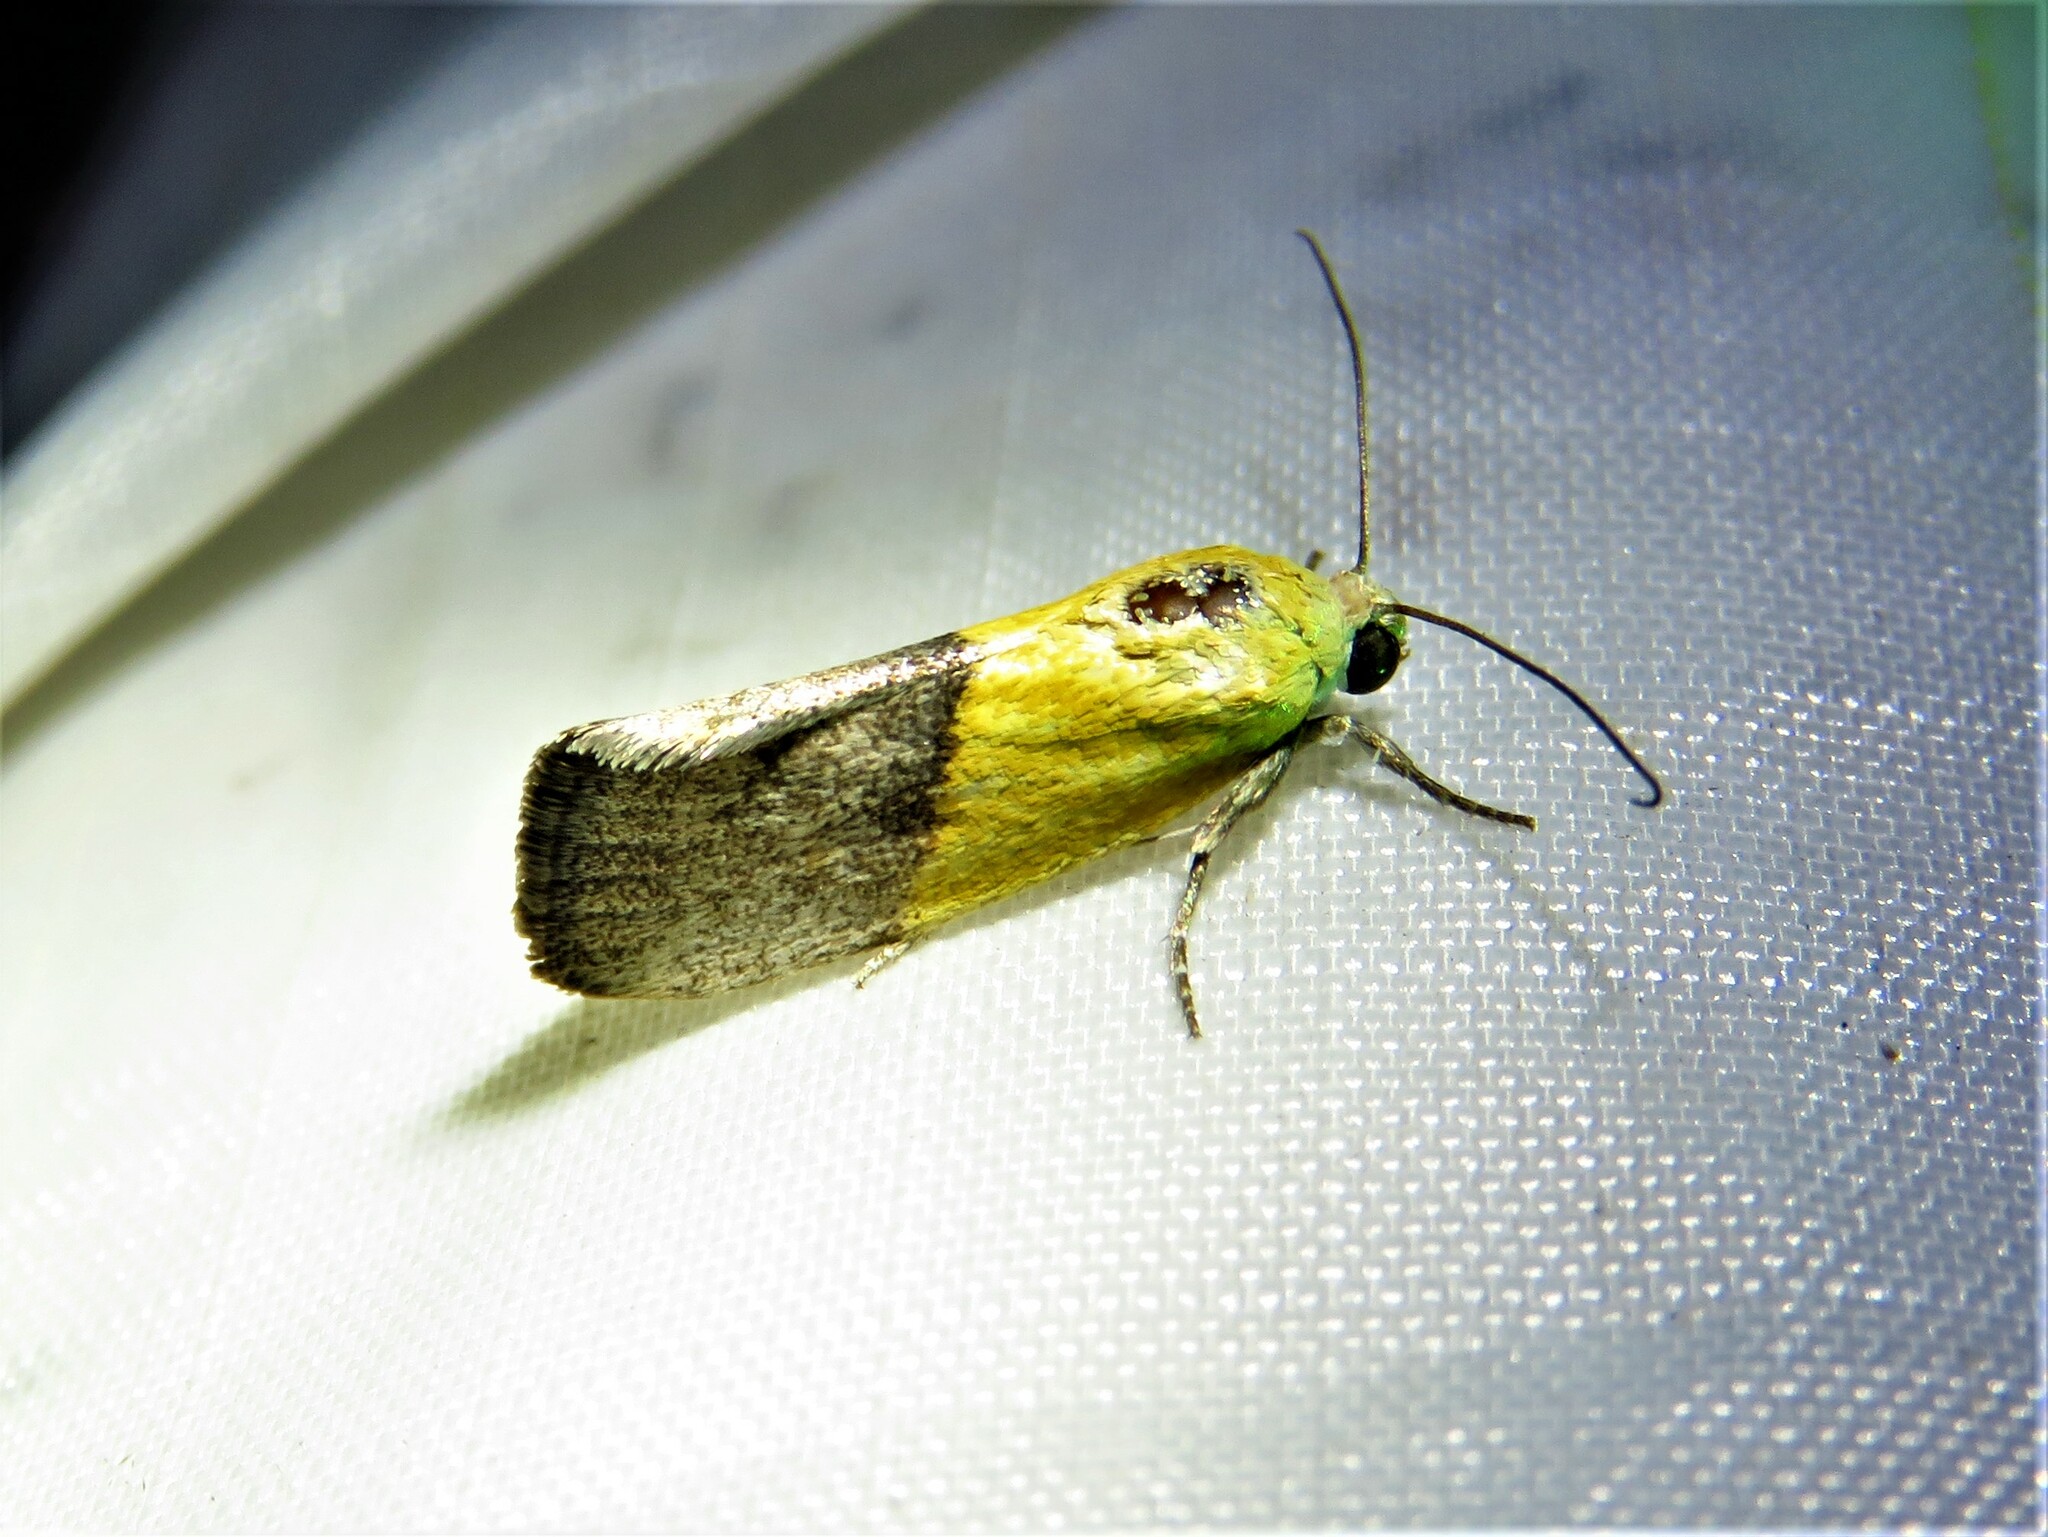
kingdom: Animalia
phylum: Arthropoda
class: Insecta
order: Lepidoptera
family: Noctuidae
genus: Acontia
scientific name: Acontia semiflava
